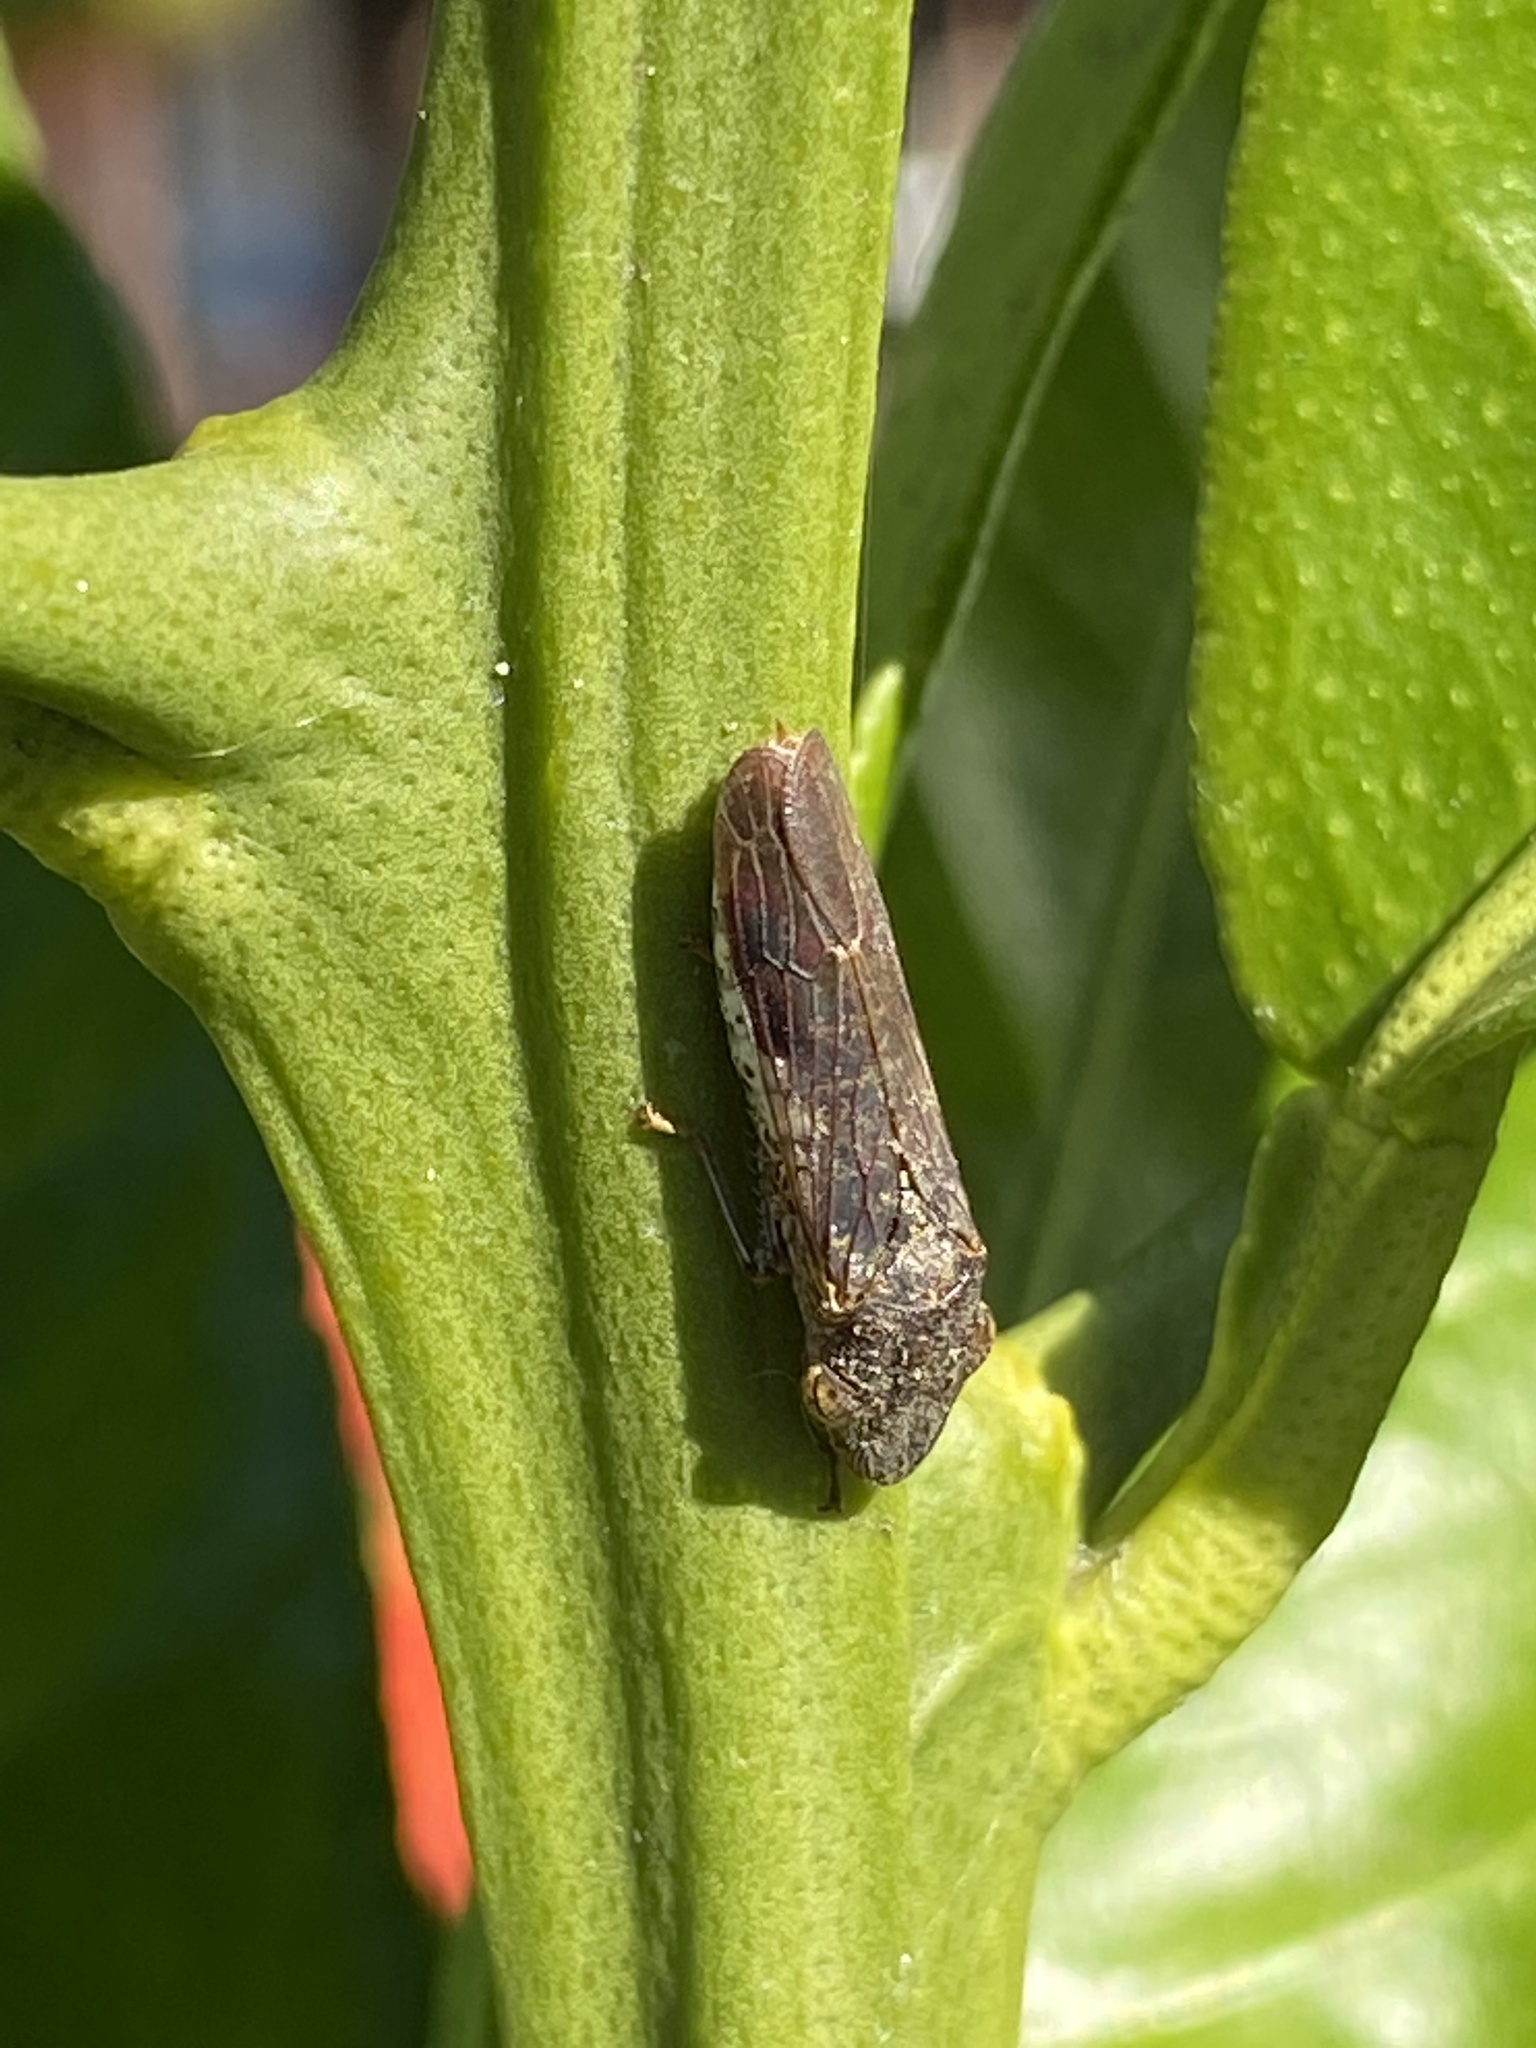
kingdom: Animalia
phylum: Arthropoda
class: Insecta
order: Hemiptera
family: Cicadellidae
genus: Homalodisca
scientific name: Homalodisca vitripennis
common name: Glassy-winged sharpshooter
